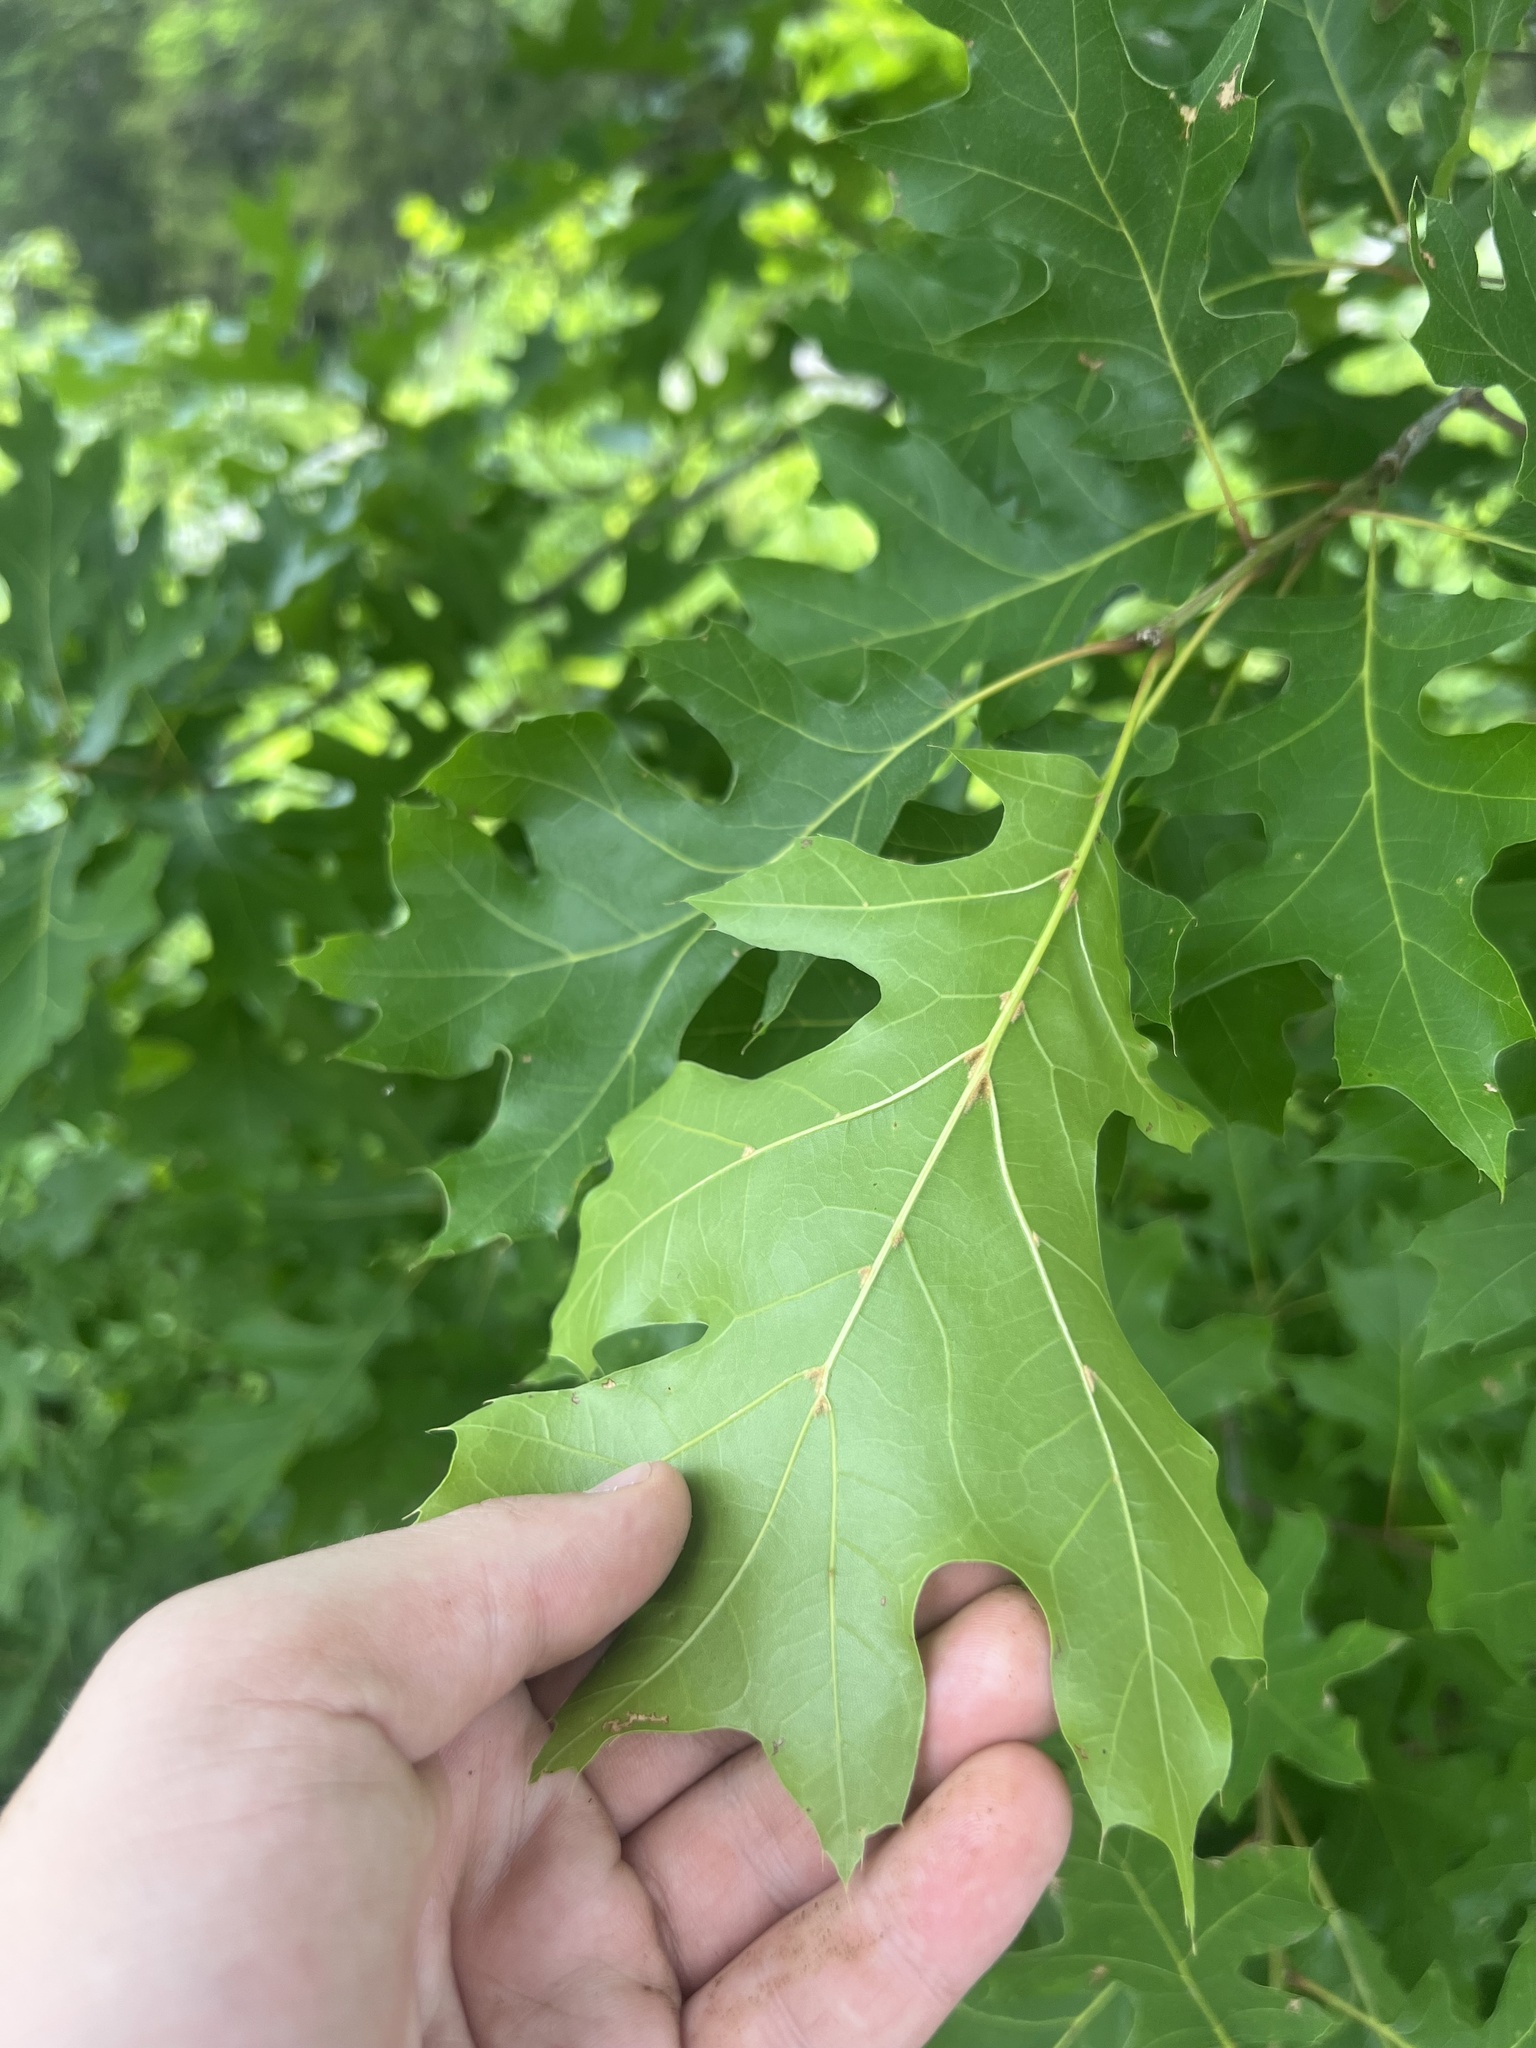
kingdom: Plantae
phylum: Tracheophyta
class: Magnoliopsida
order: Fagales
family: Fagaceae
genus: Quercus
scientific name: Quercus shumardii
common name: Shumard oak
